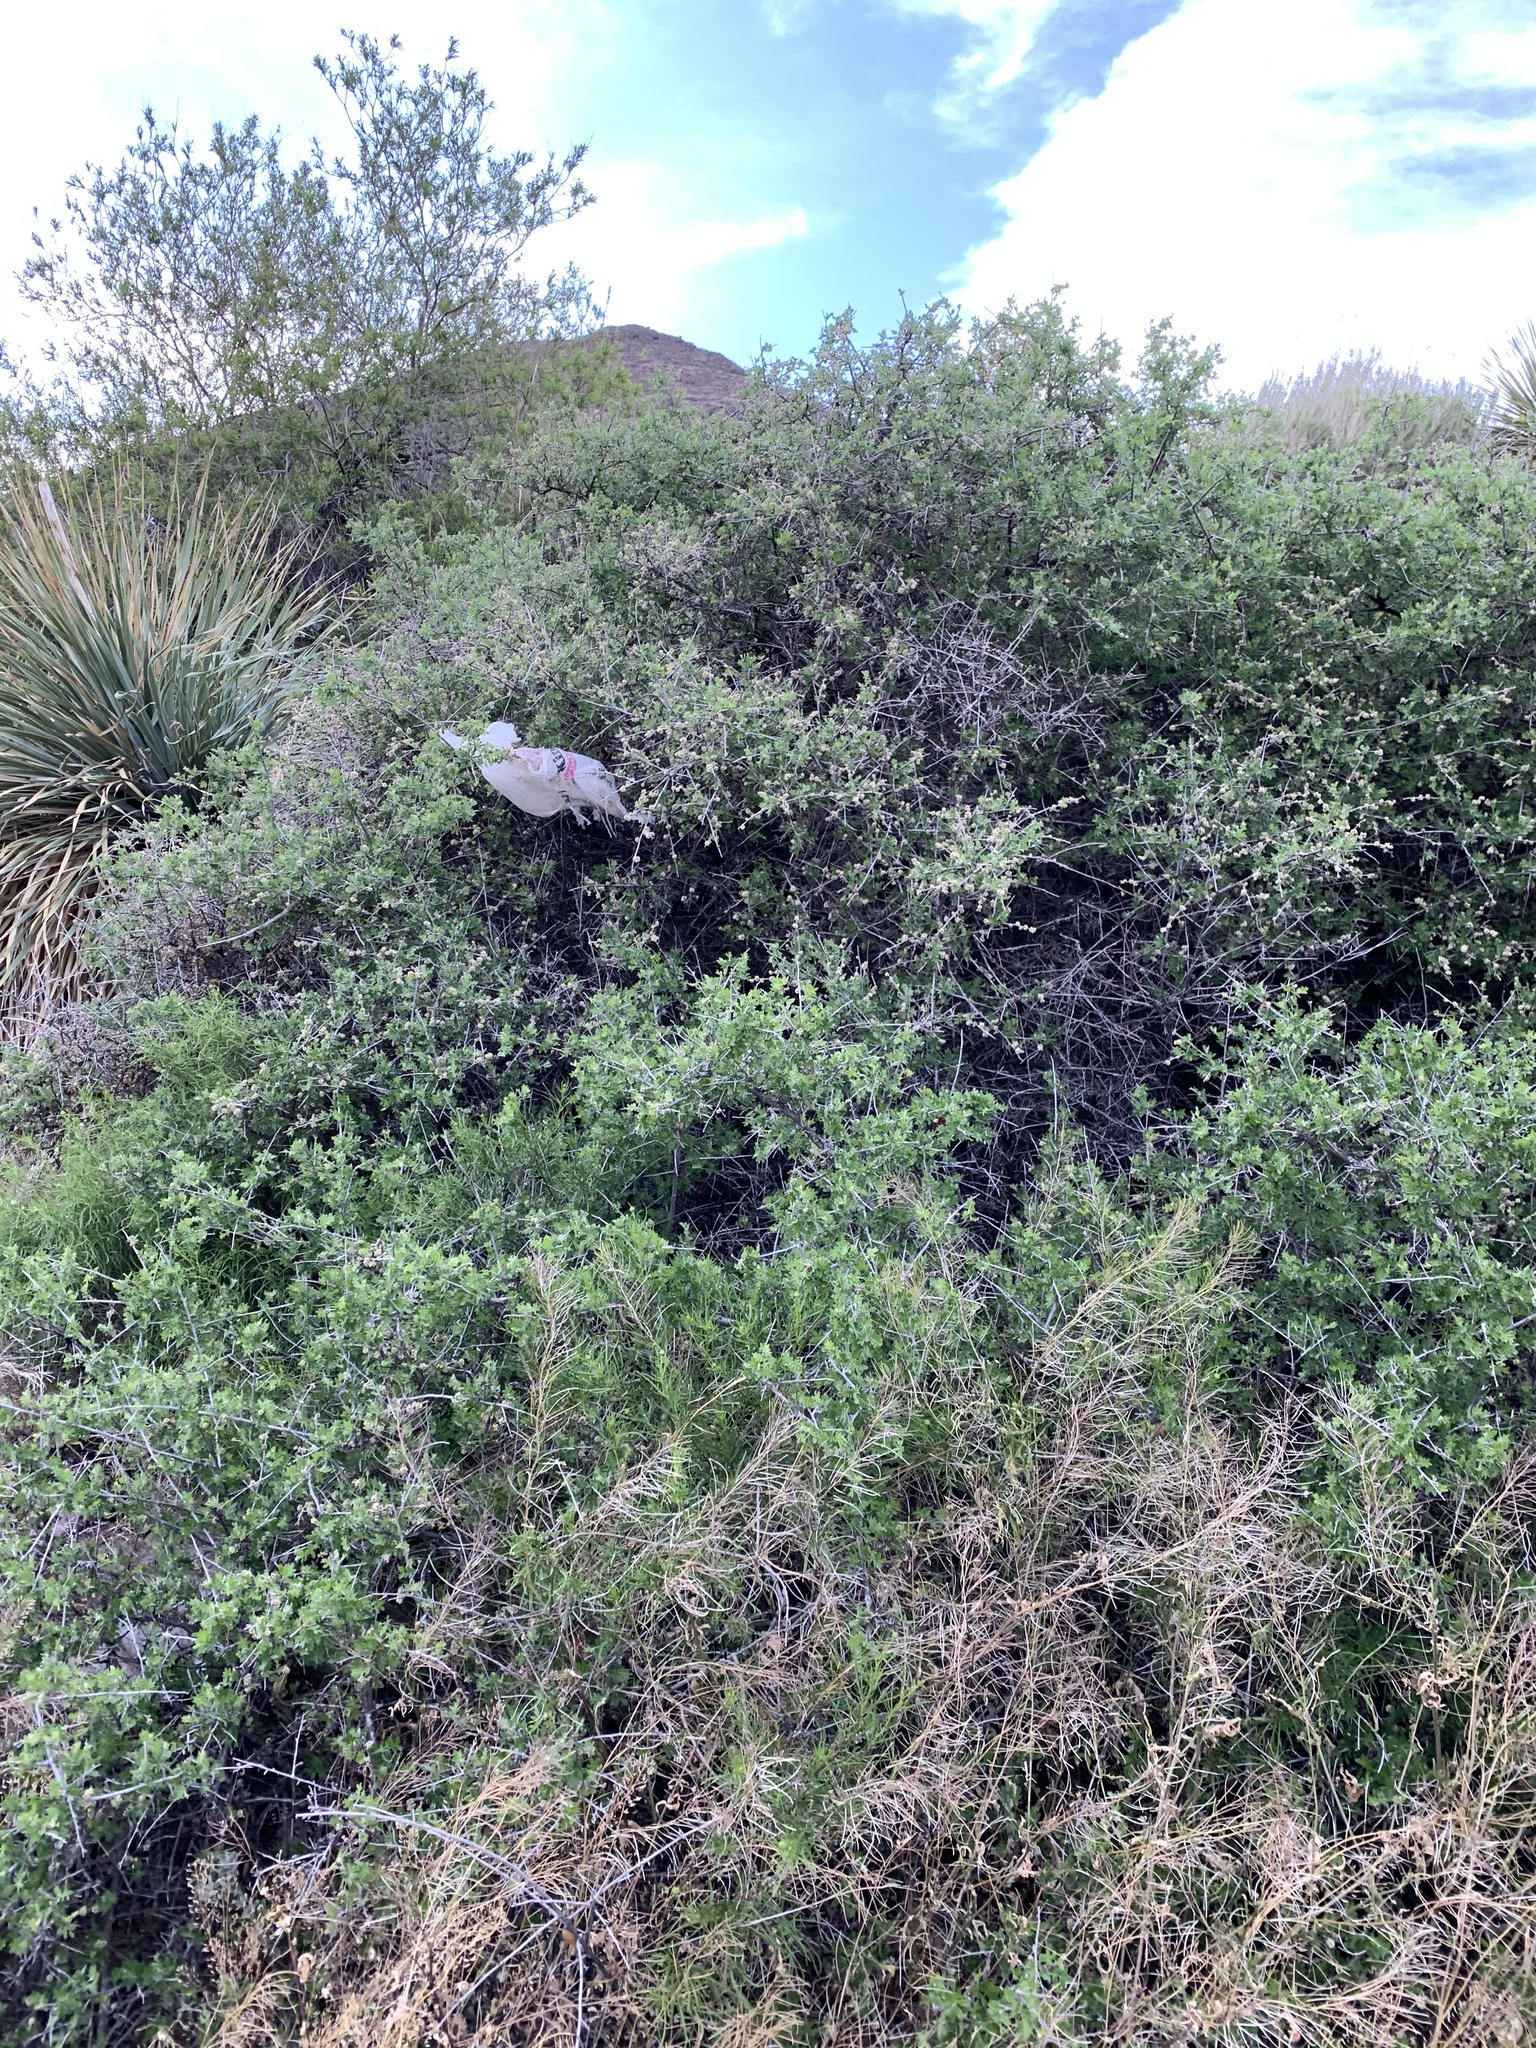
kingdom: Plantae
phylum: Tracheophyta
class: Magnoliopsida
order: Sapindales
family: Anacardiaceae
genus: Rhus
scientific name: Rhus microphylla
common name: Desert sumac
